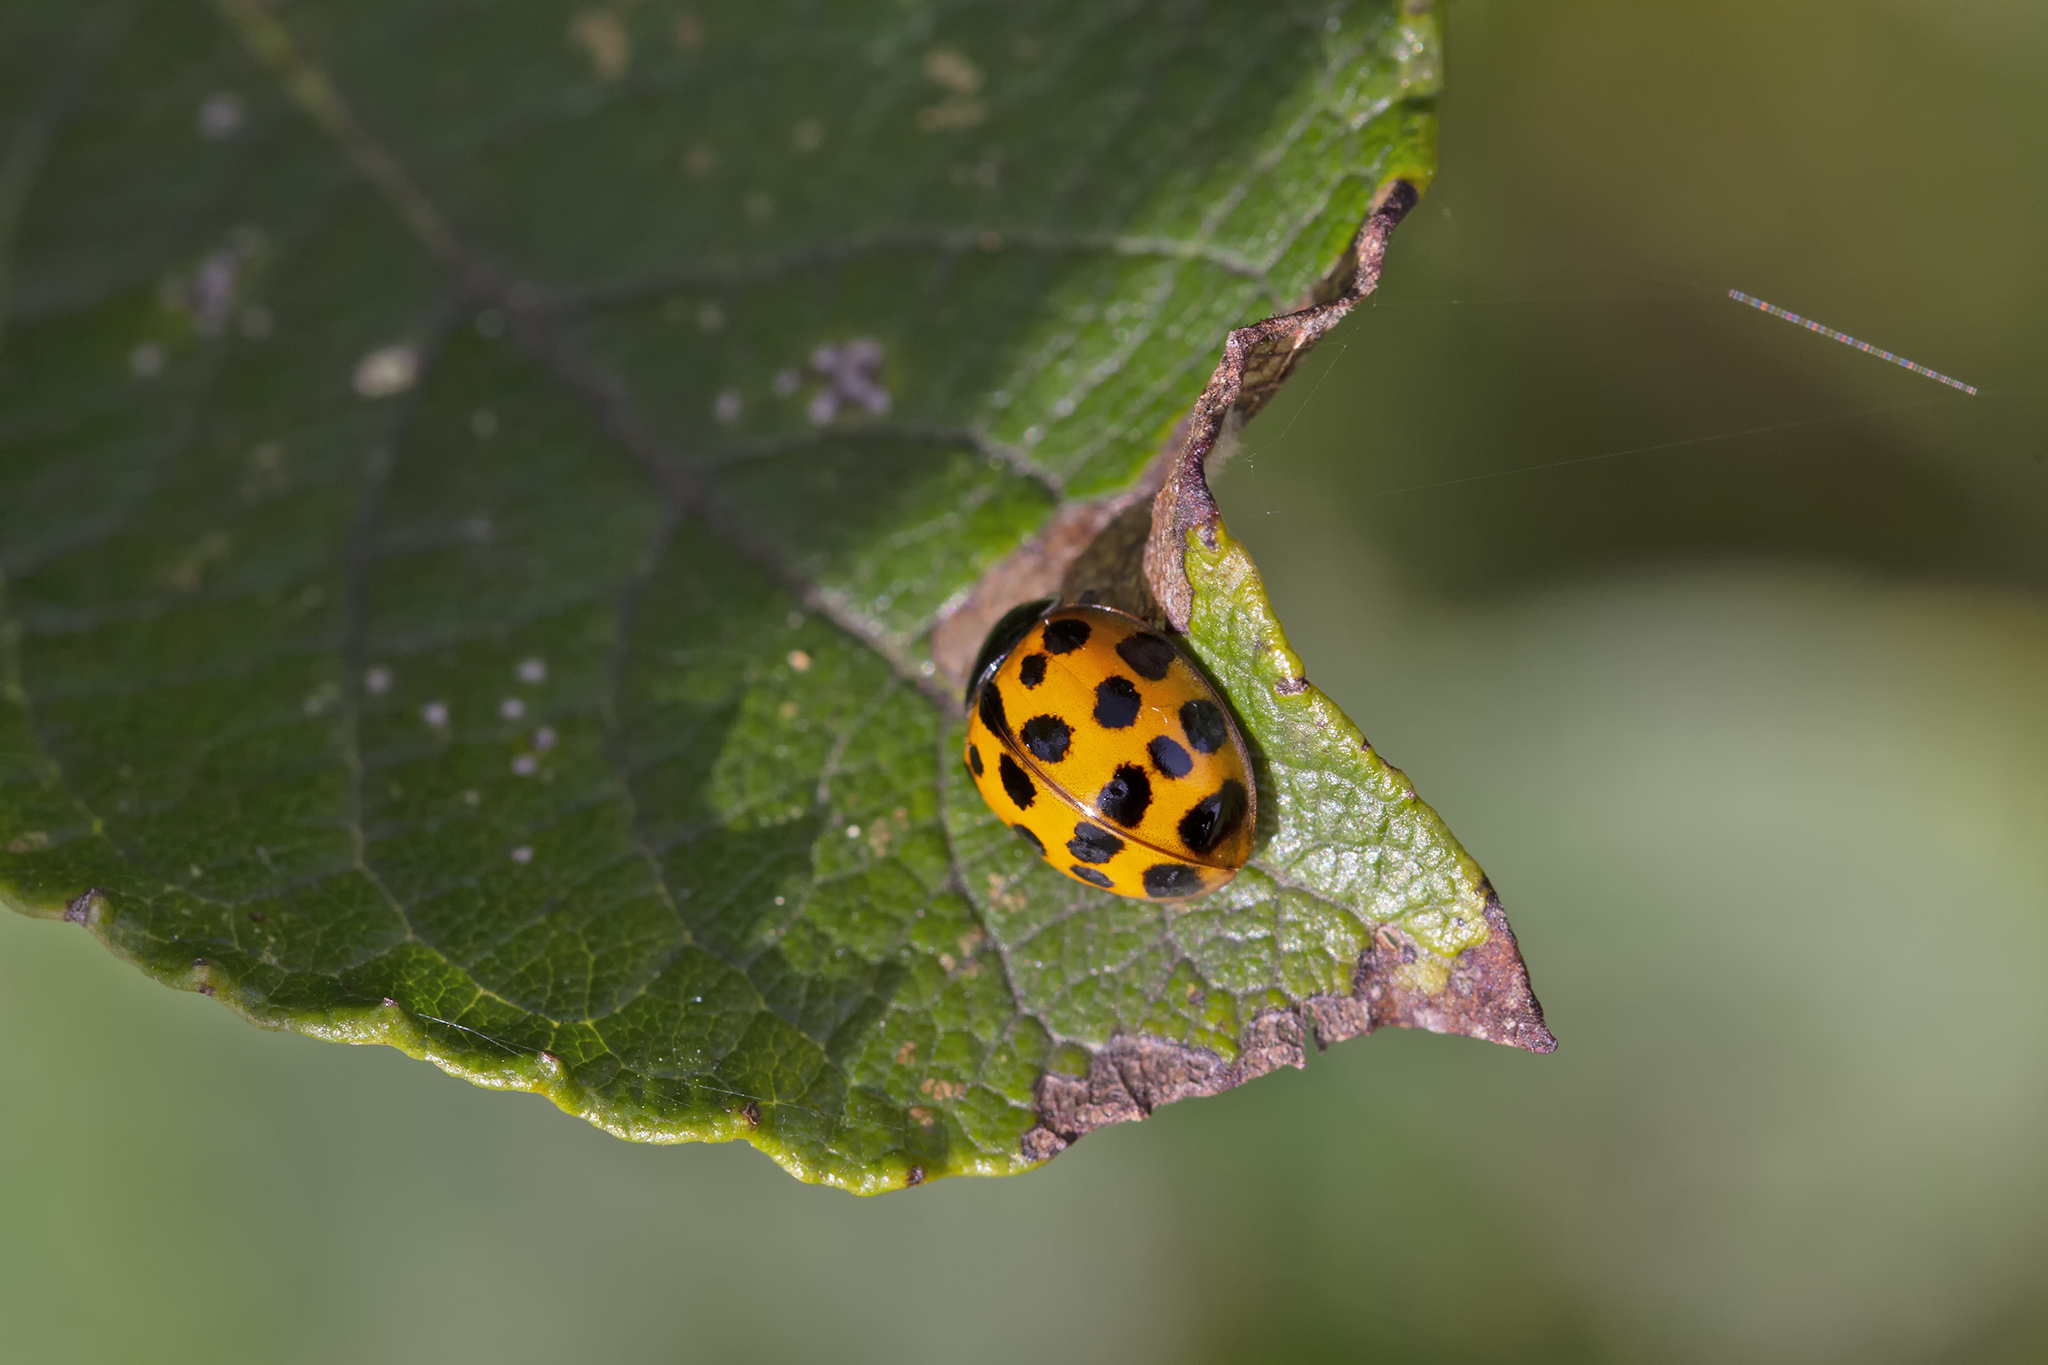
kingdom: Animalia
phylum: Arthropoda
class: Insecta
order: Coleoptera
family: Coccinellidae
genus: Harmonia
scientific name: Harmonia axyridis
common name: Harlequin ladybird
